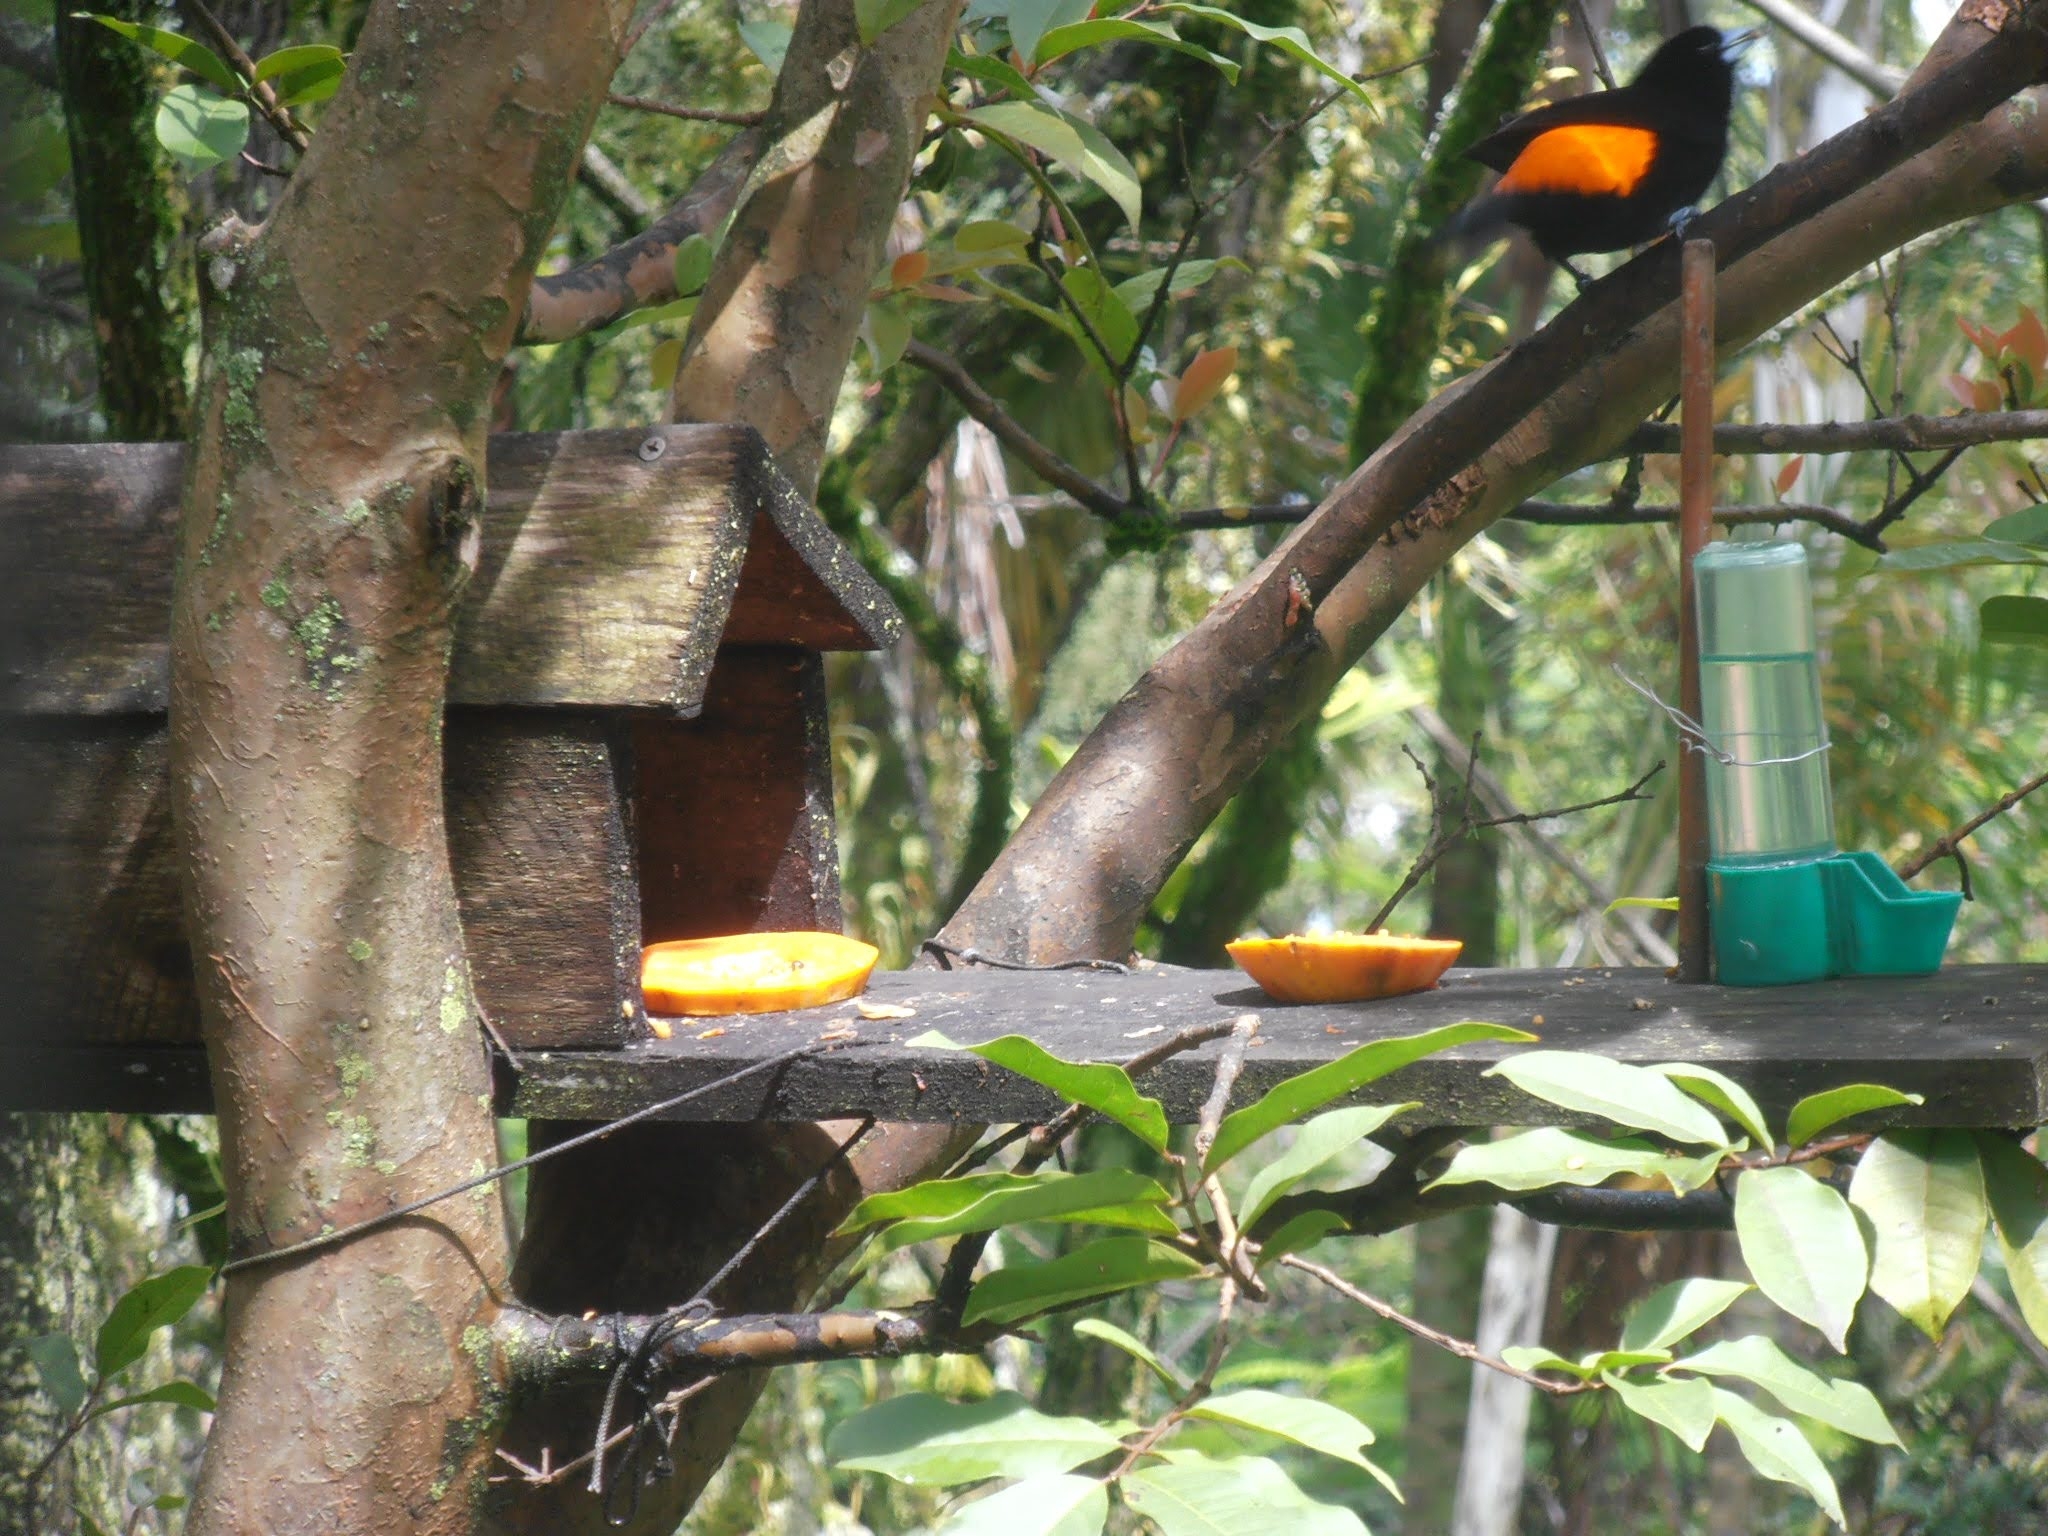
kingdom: Animalia
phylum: Chordata
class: Aves
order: Passeriformes
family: Thraupidae
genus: Ramphocelus
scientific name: Ramphocelus flammigerus
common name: Flame-rumped tanager
